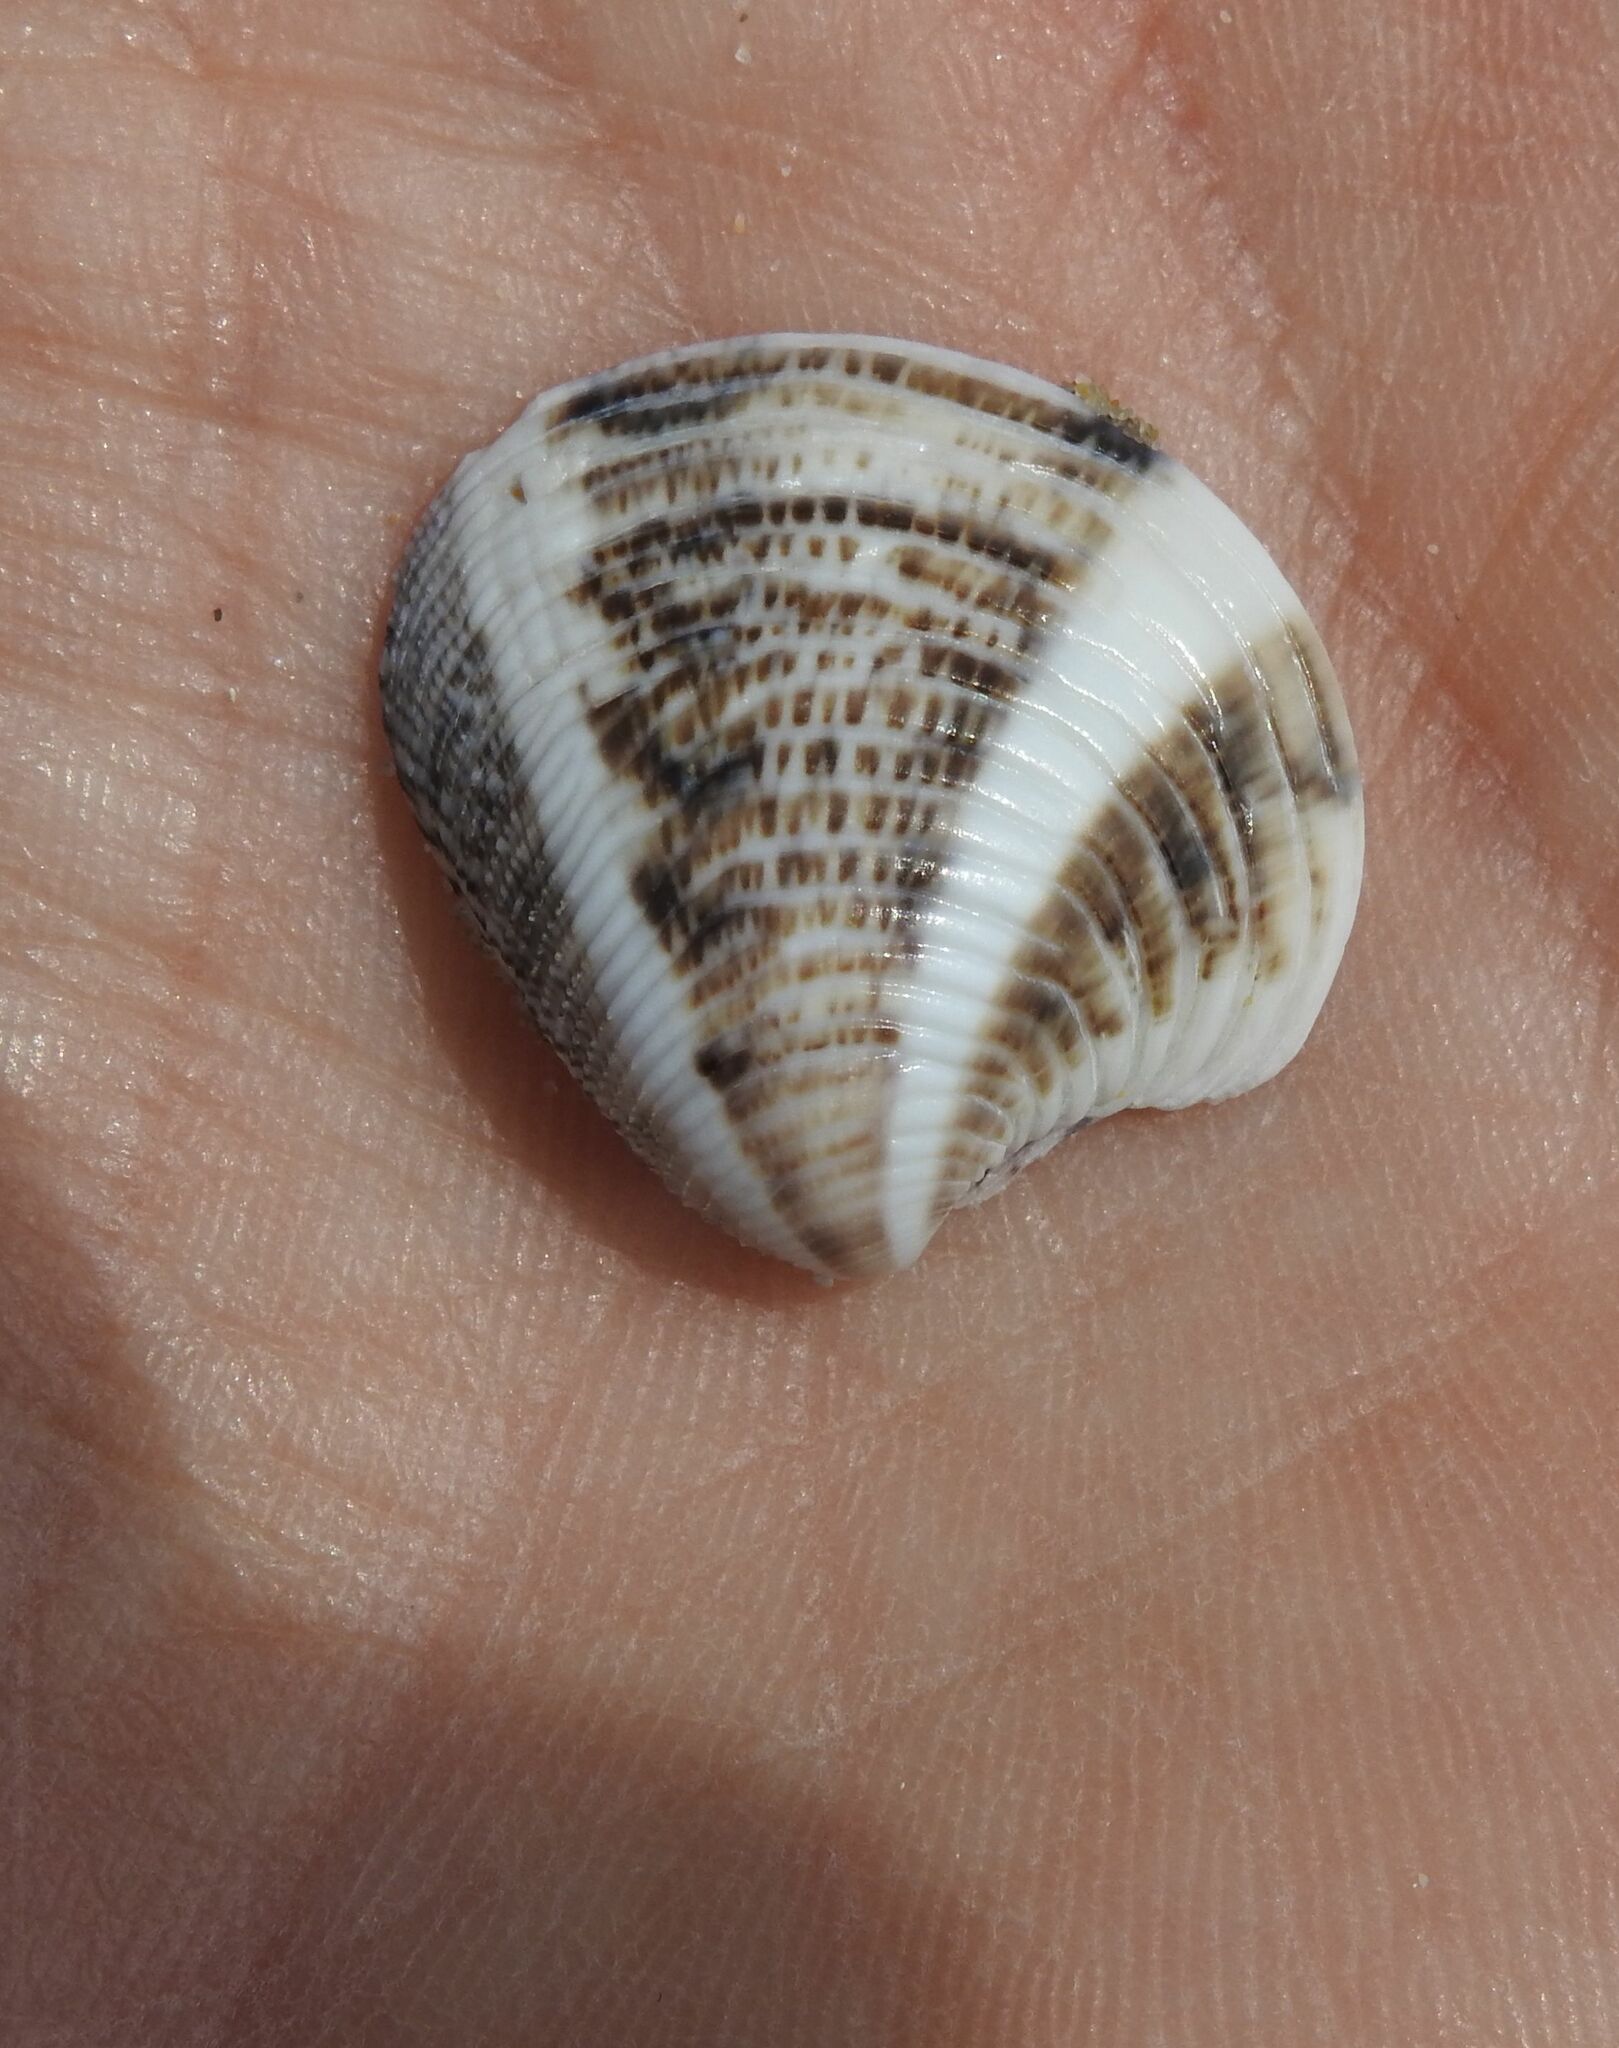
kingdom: Animalia
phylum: Mollusca
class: Bivalvia
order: Venerida
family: Veneridae
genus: Chamelea
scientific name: Chamelea gallina
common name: Chicken venus
